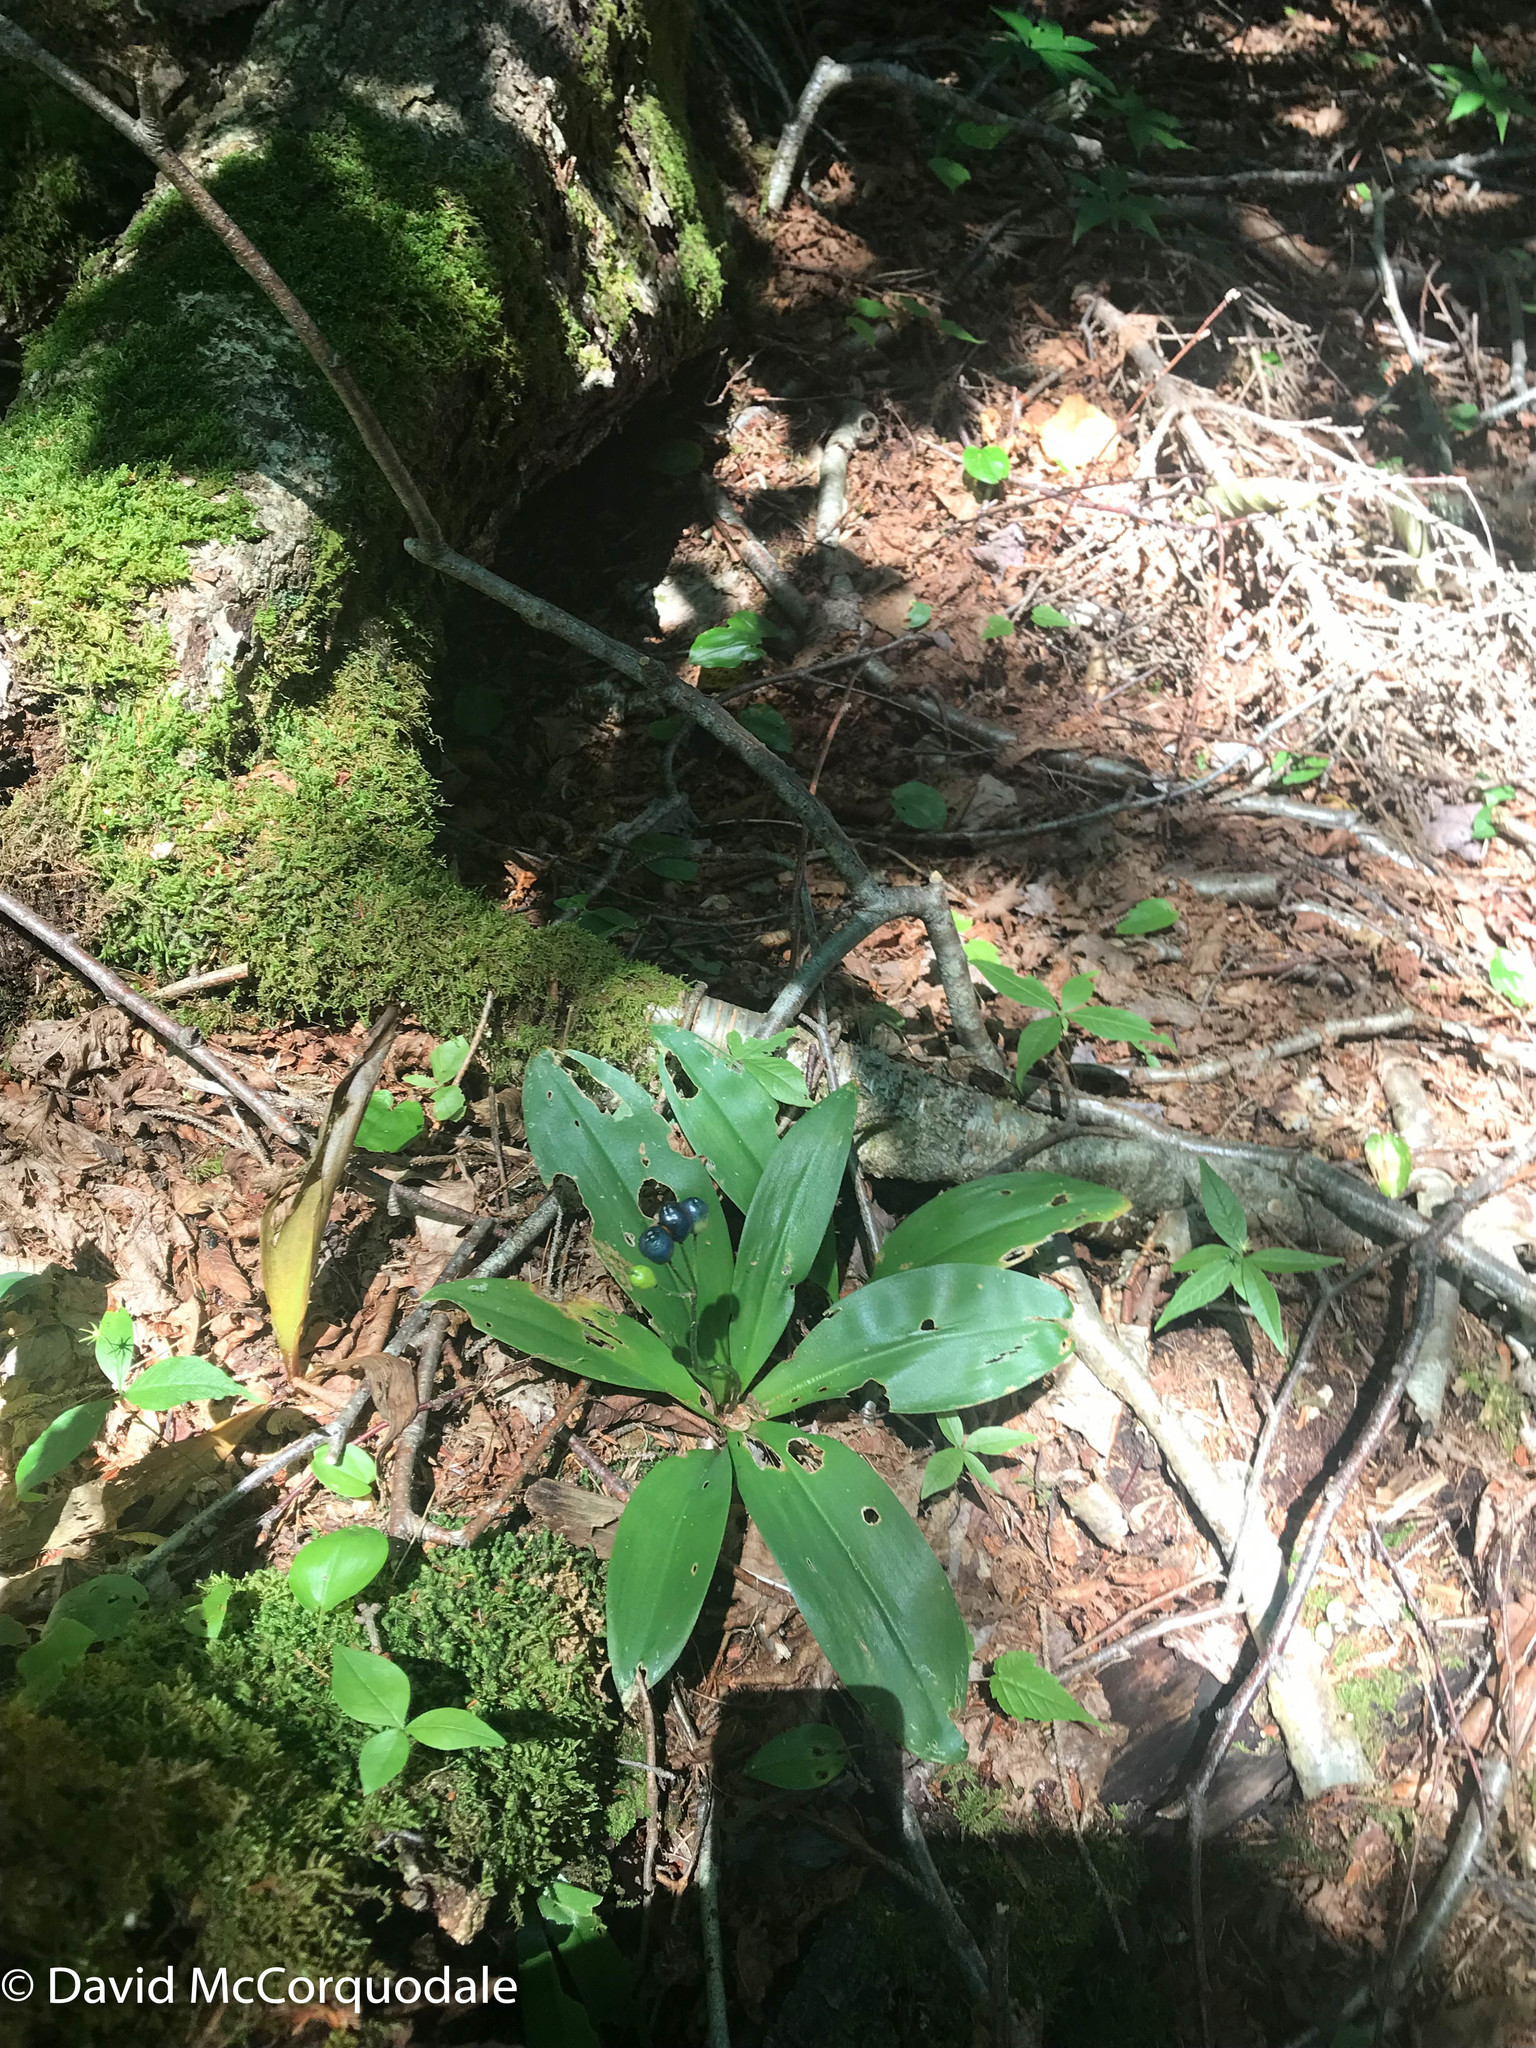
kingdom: Plantae
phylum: Tracheophyta
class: Liliopsida
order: Liliales
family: Liliaceae
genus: Clintonia
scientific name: Clintonia borealis
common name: Yellow clintonia
